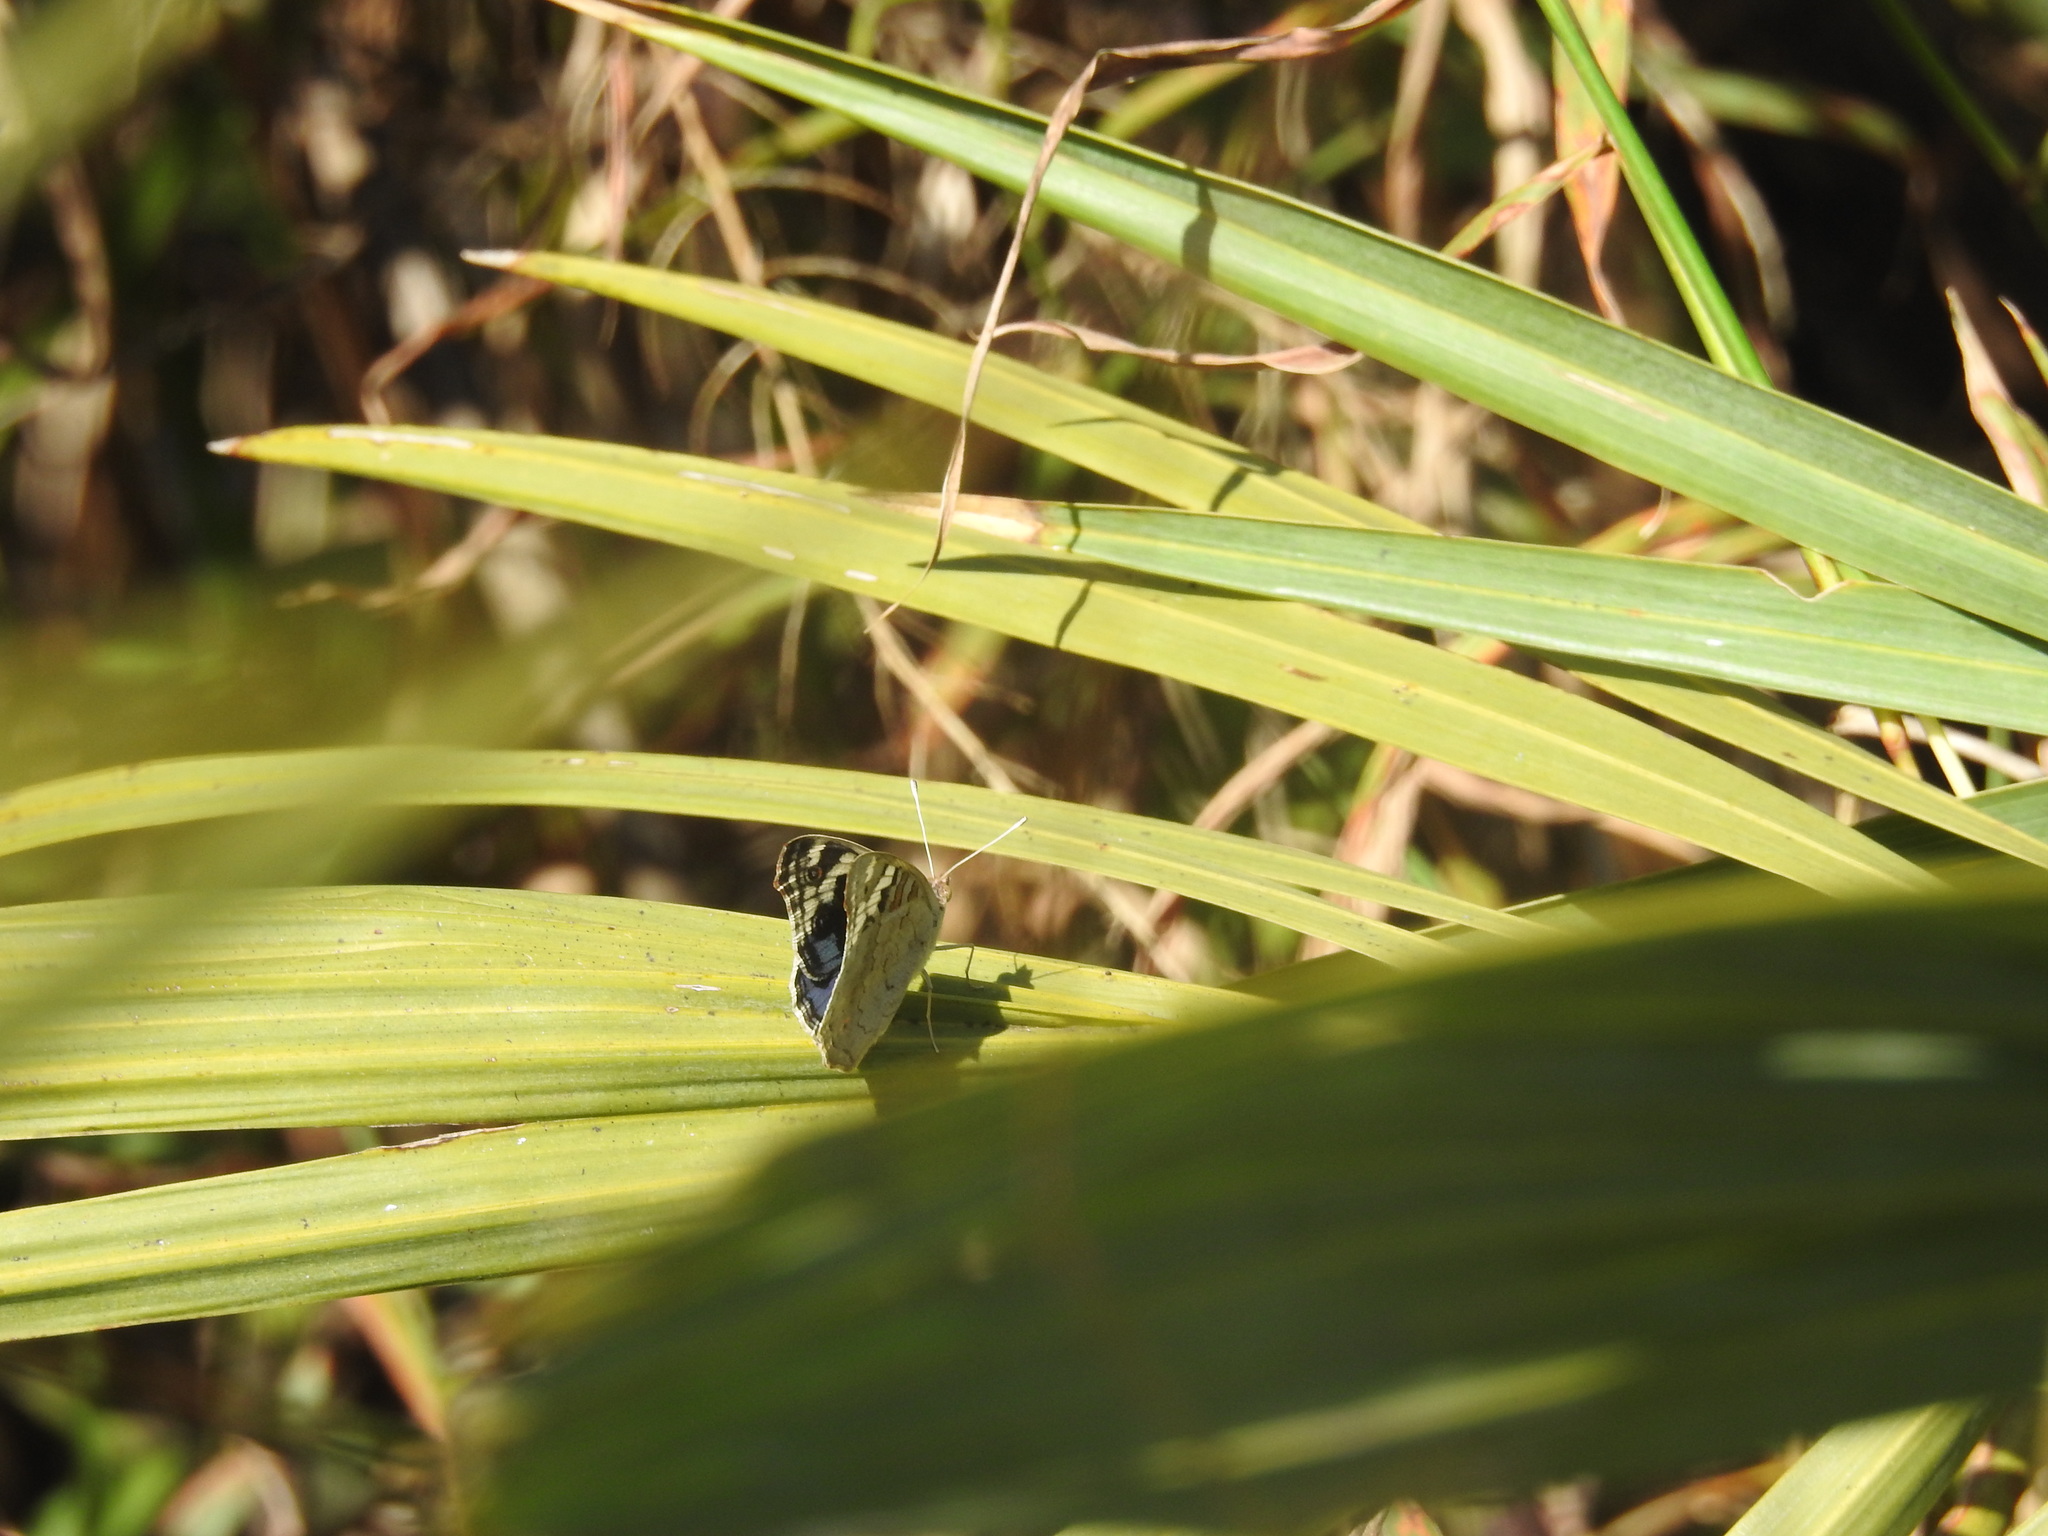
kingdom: Animalia
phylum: Arthropoda
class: Insecta
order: Lepidoptera
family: Nymphalidae
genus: Junonia
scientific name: Junonia orithya
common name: Blue pansy
